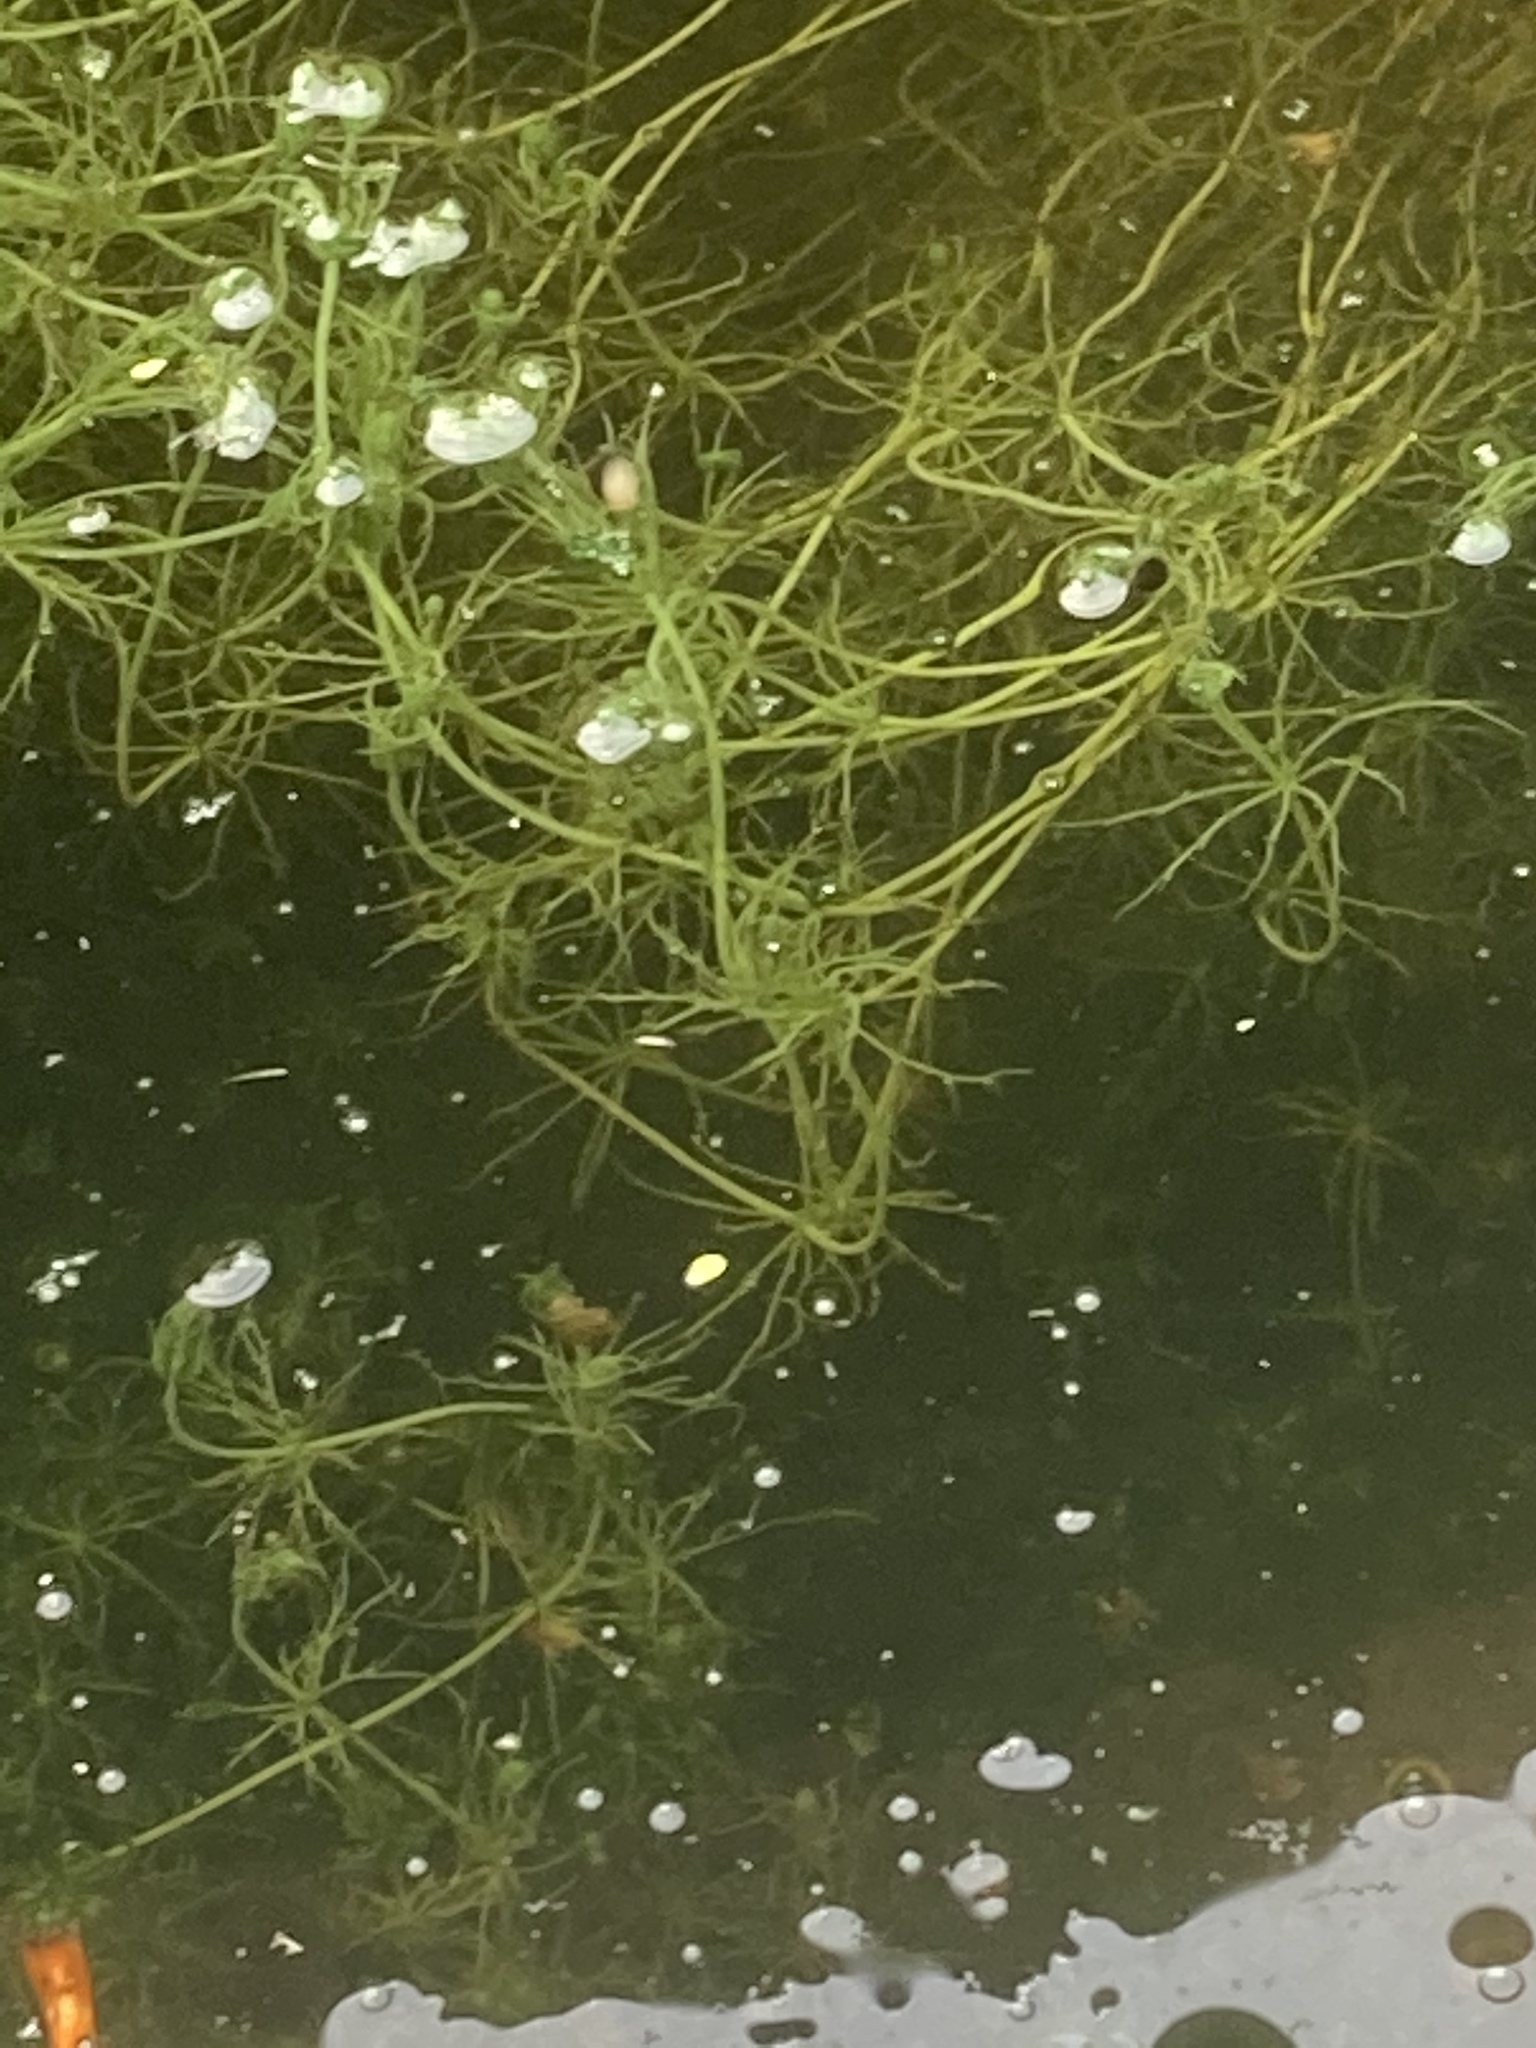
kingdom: Plantae
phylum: Charophyta
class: Charophyceae
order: Charales
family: Characeae
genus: Chara
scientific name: Chara vulgaris
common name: Common stonewort
